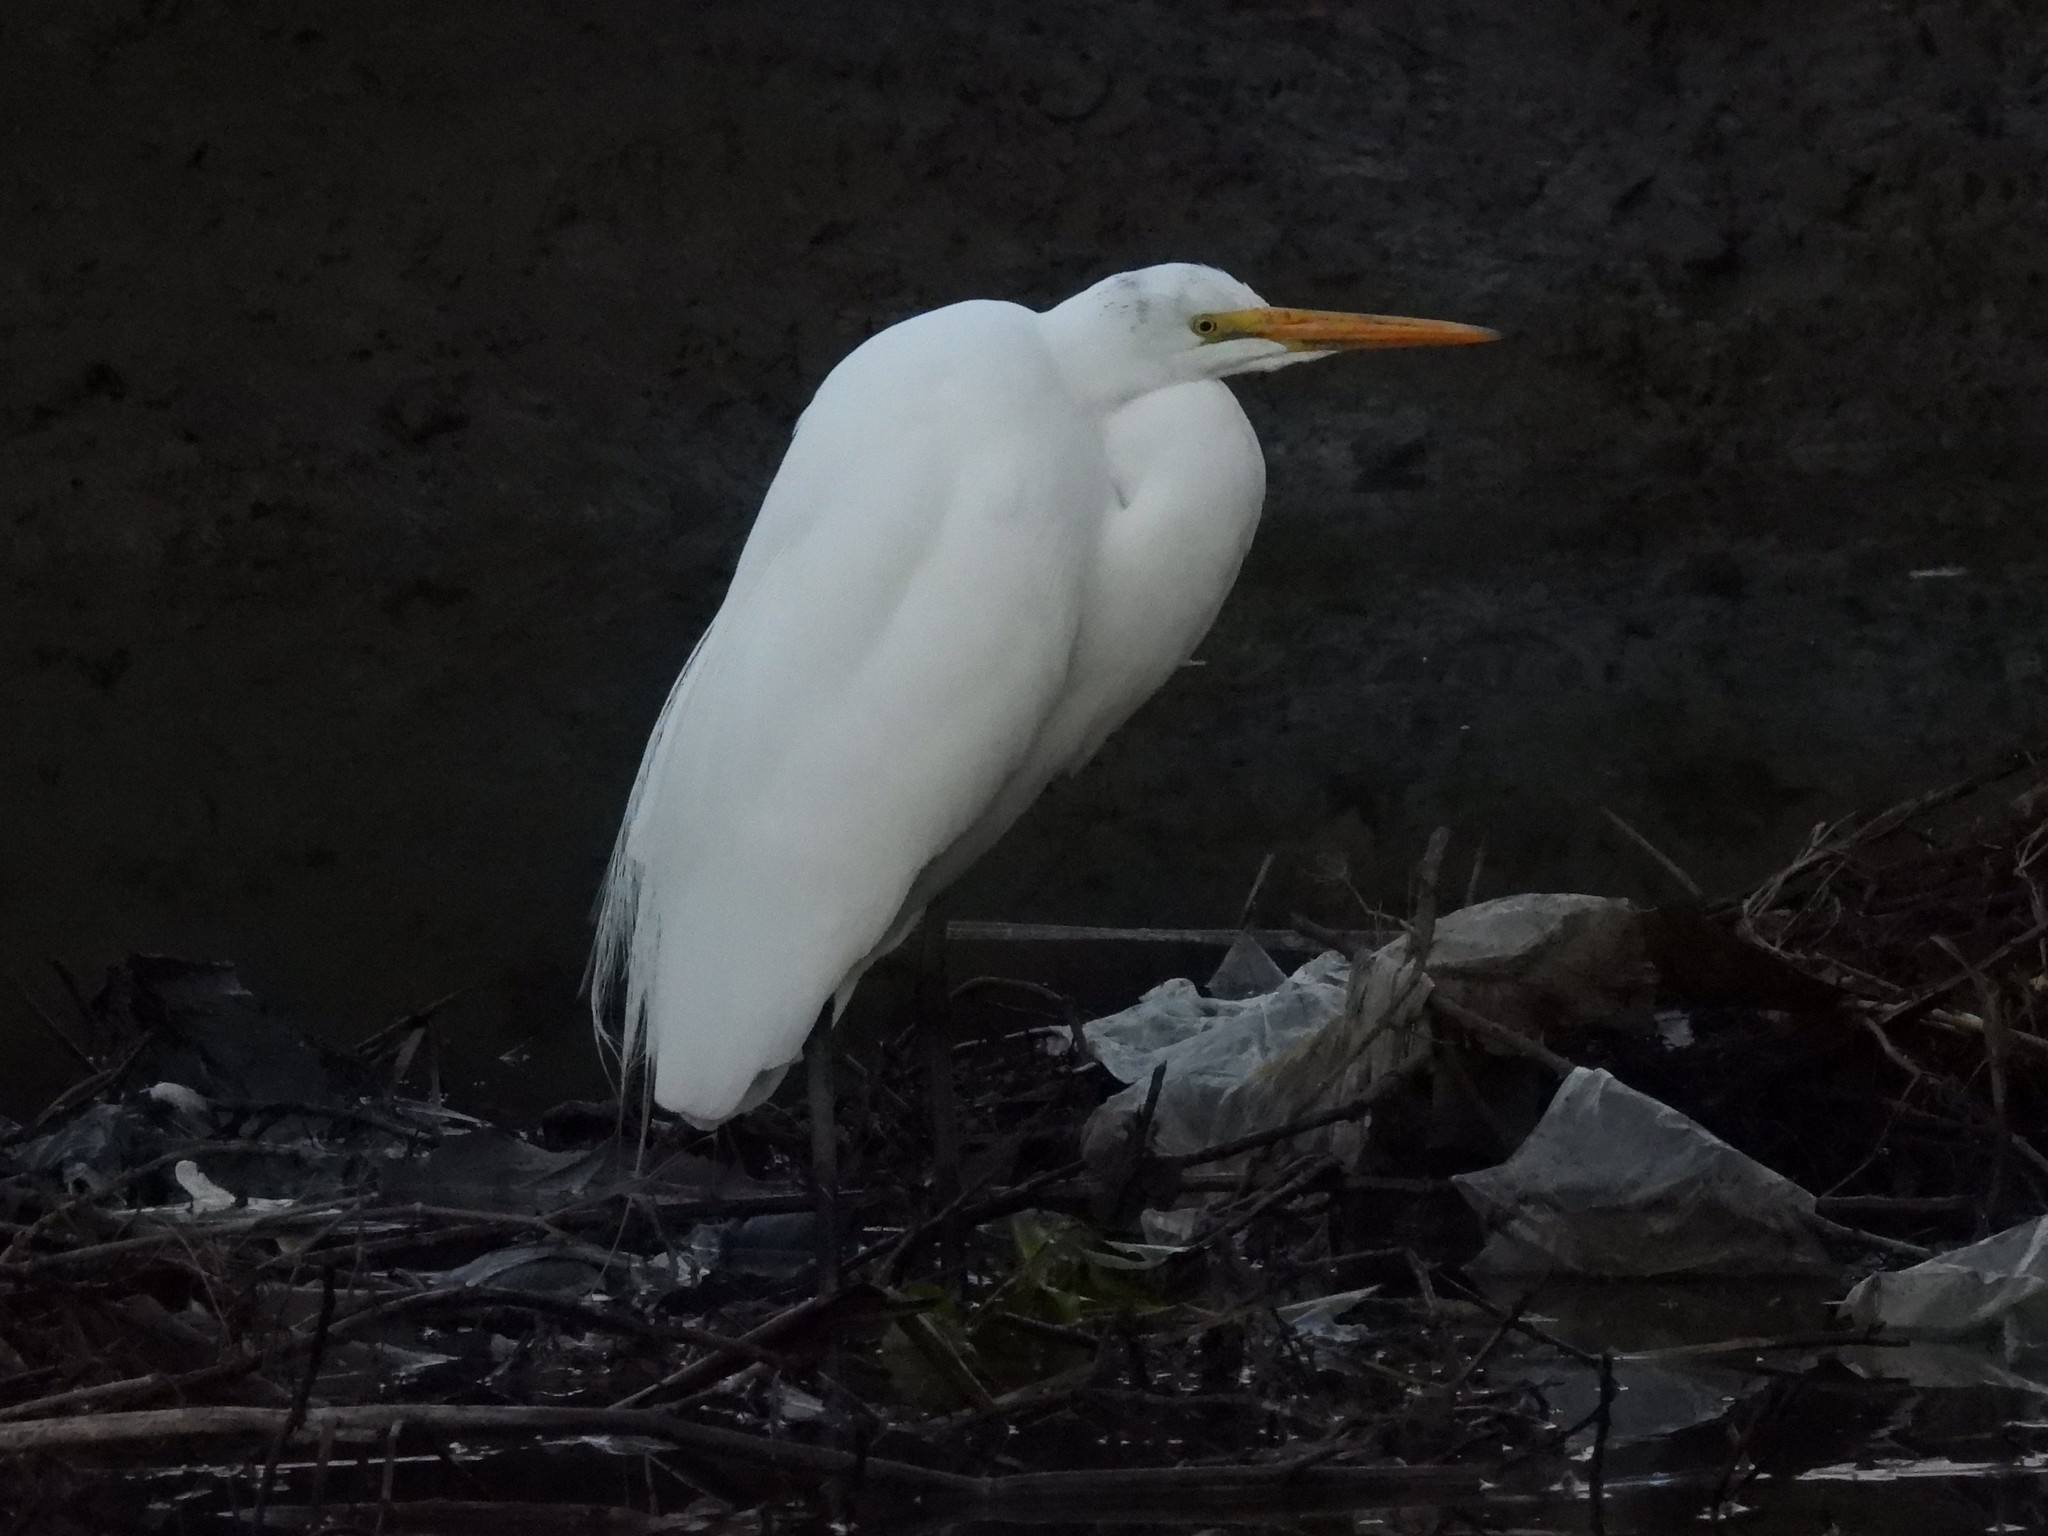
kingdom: Animalia
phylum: Chordata
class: Aves
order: Pelecaniformes
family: Ardeidae
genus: Ardea
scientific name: Ardea alba
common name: Great egret
